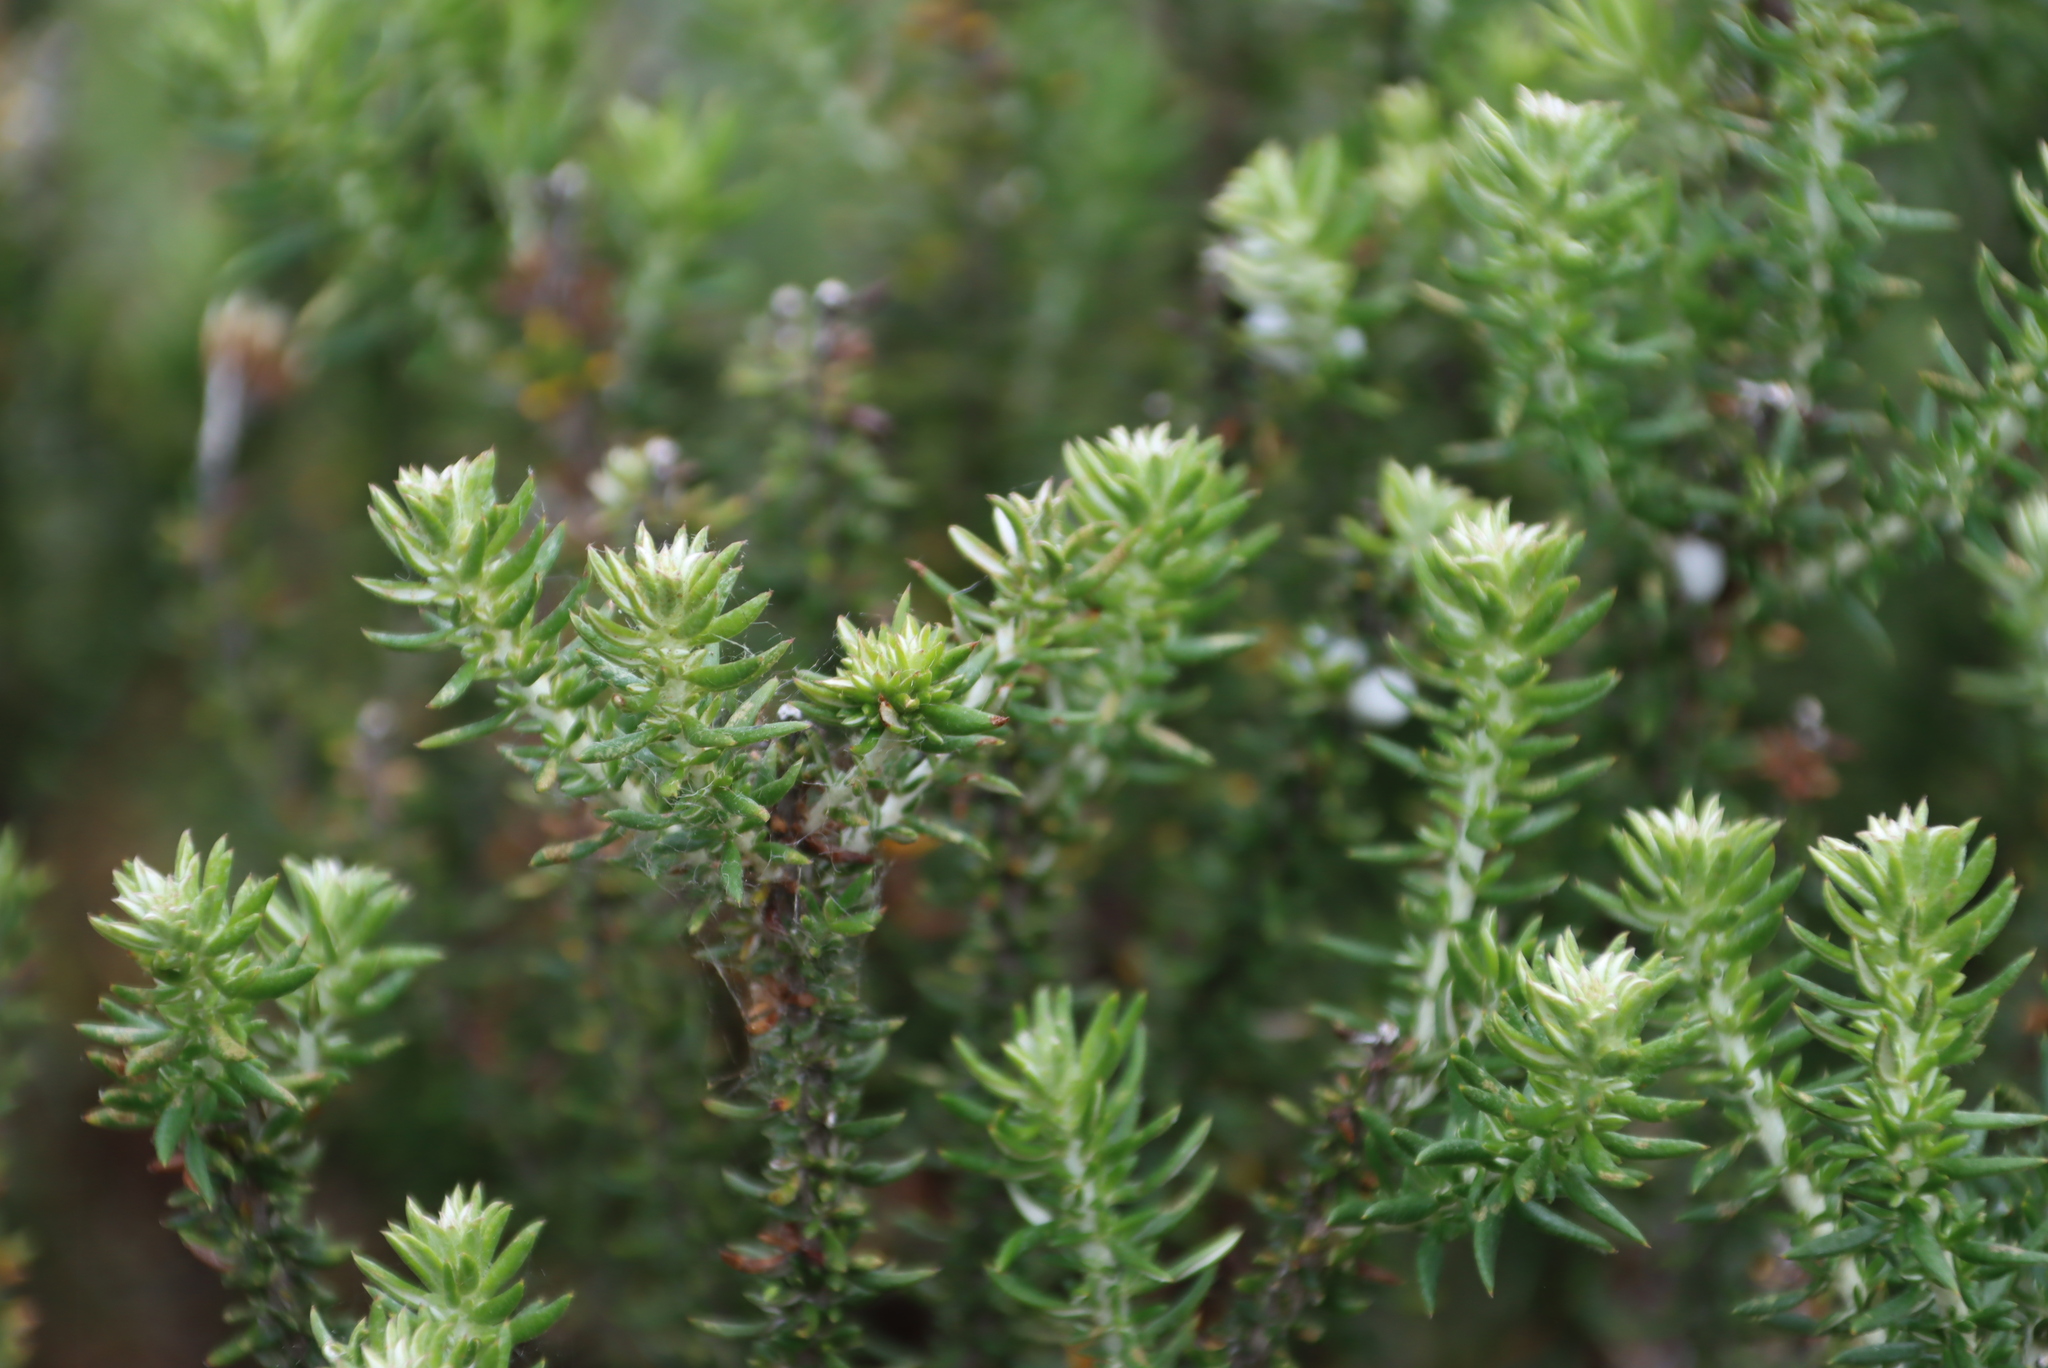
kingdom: Plantae
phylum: Tracheophyta
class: Magnoliopsida
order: Asterales
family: Asteraceae
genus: Metalasia
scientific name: Metalasia densa
